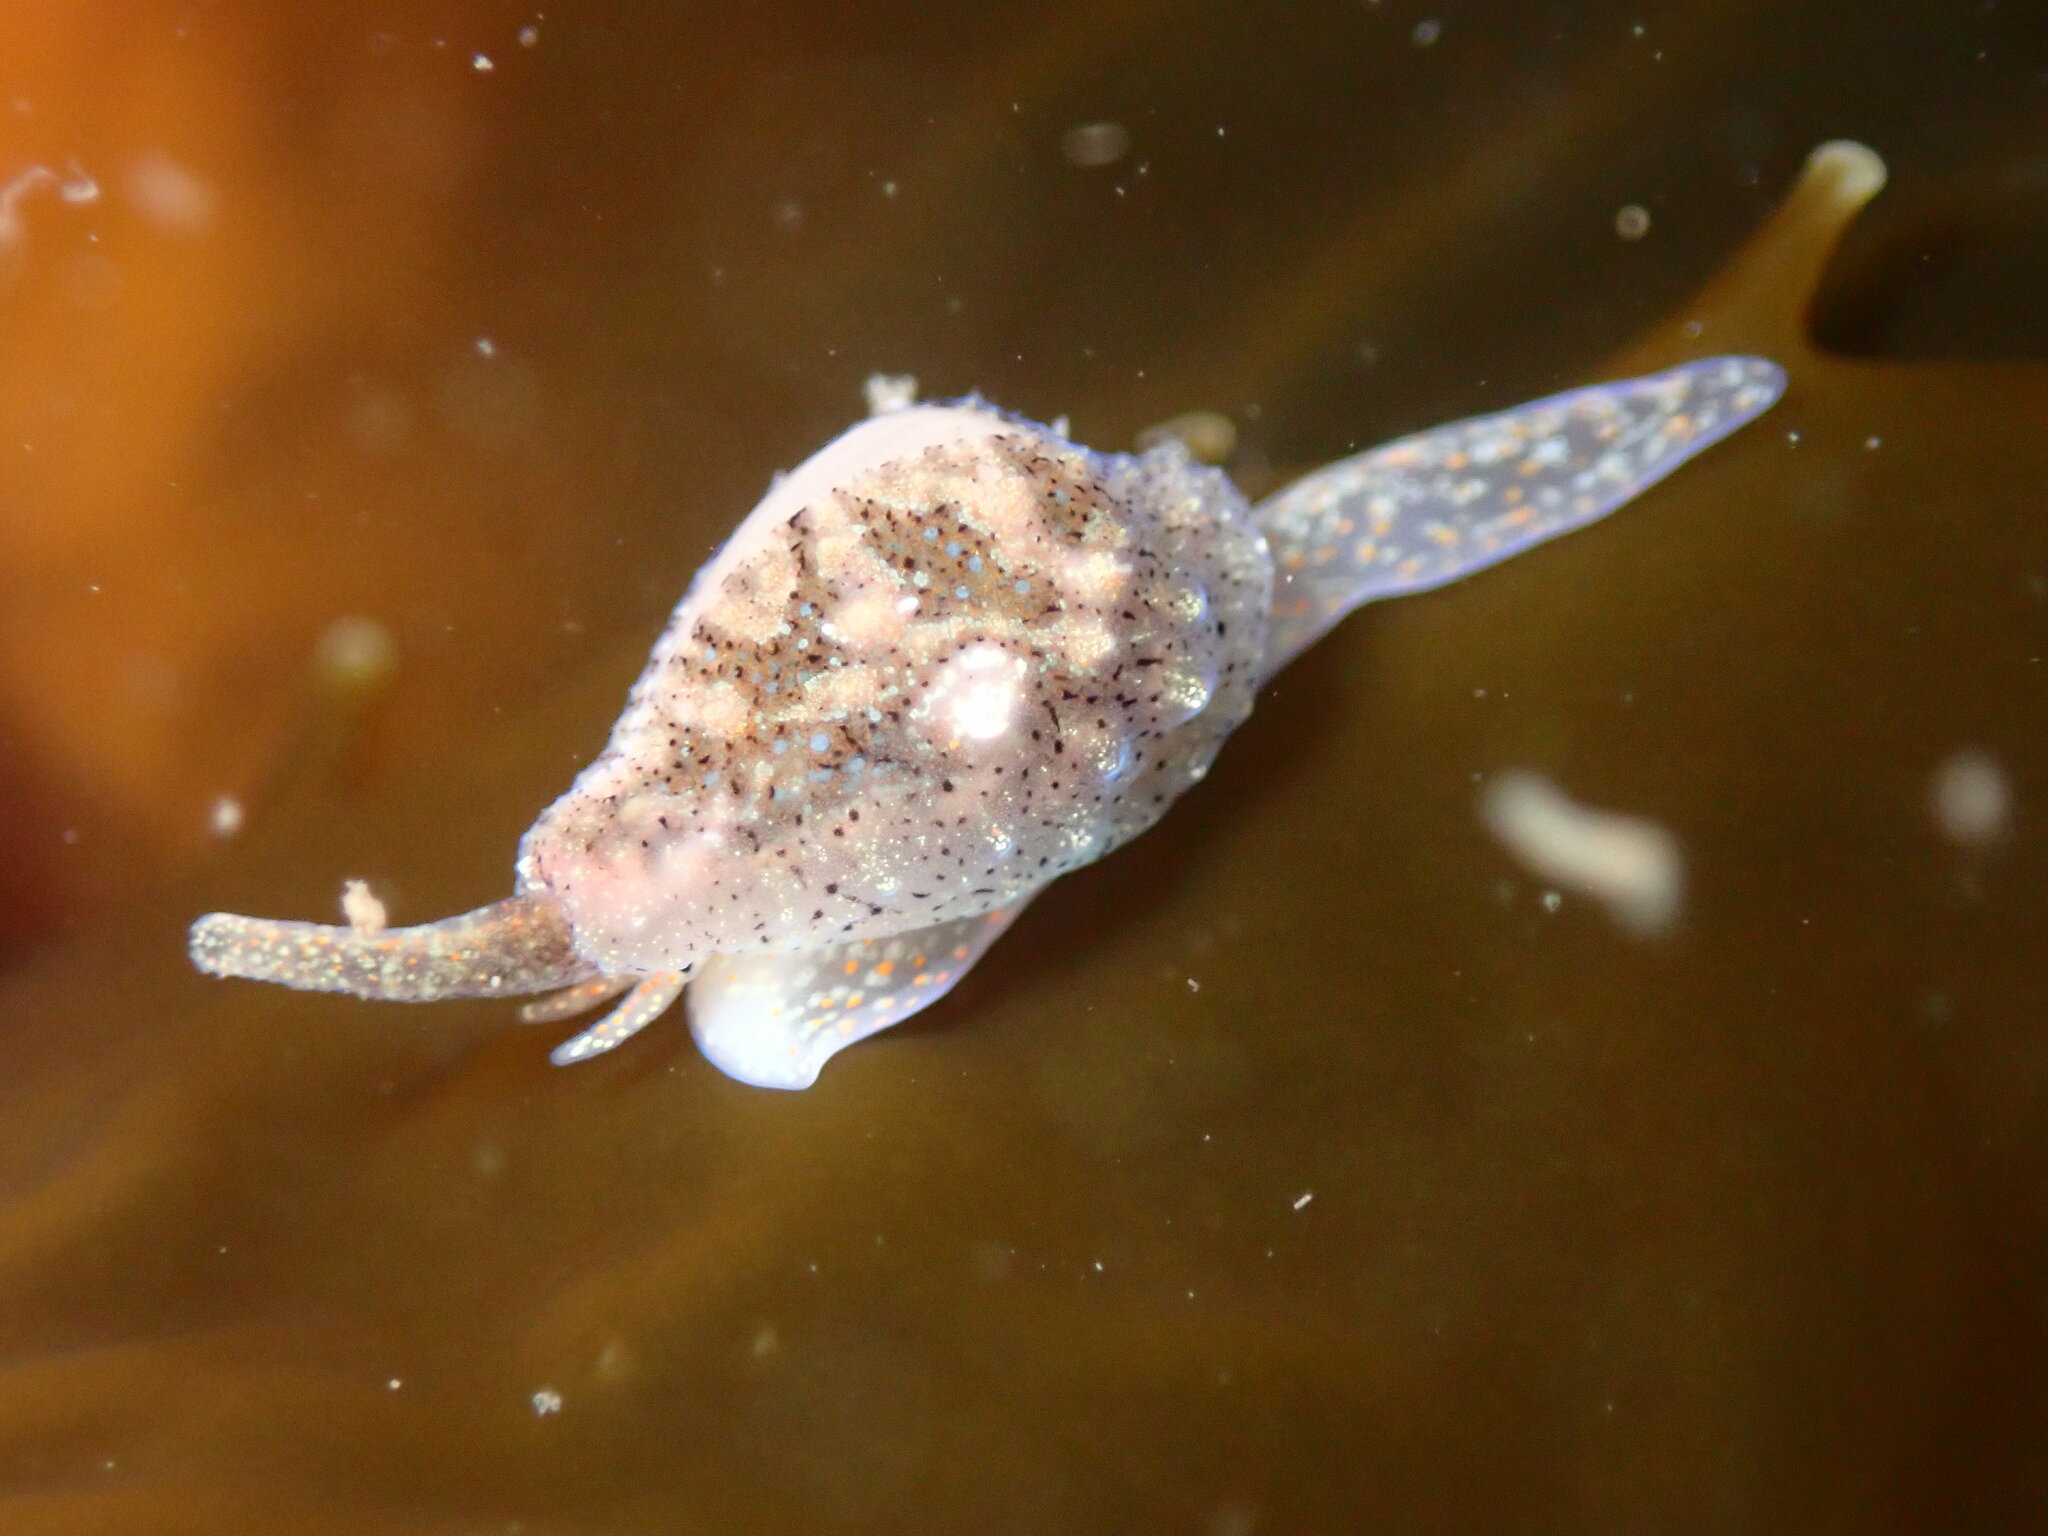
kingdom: Animalia
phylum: Mollusca
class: Gastropoda
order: Littorinimorpha
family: Eratoidae
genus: Hespererato
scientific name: Hespererato vitellina
